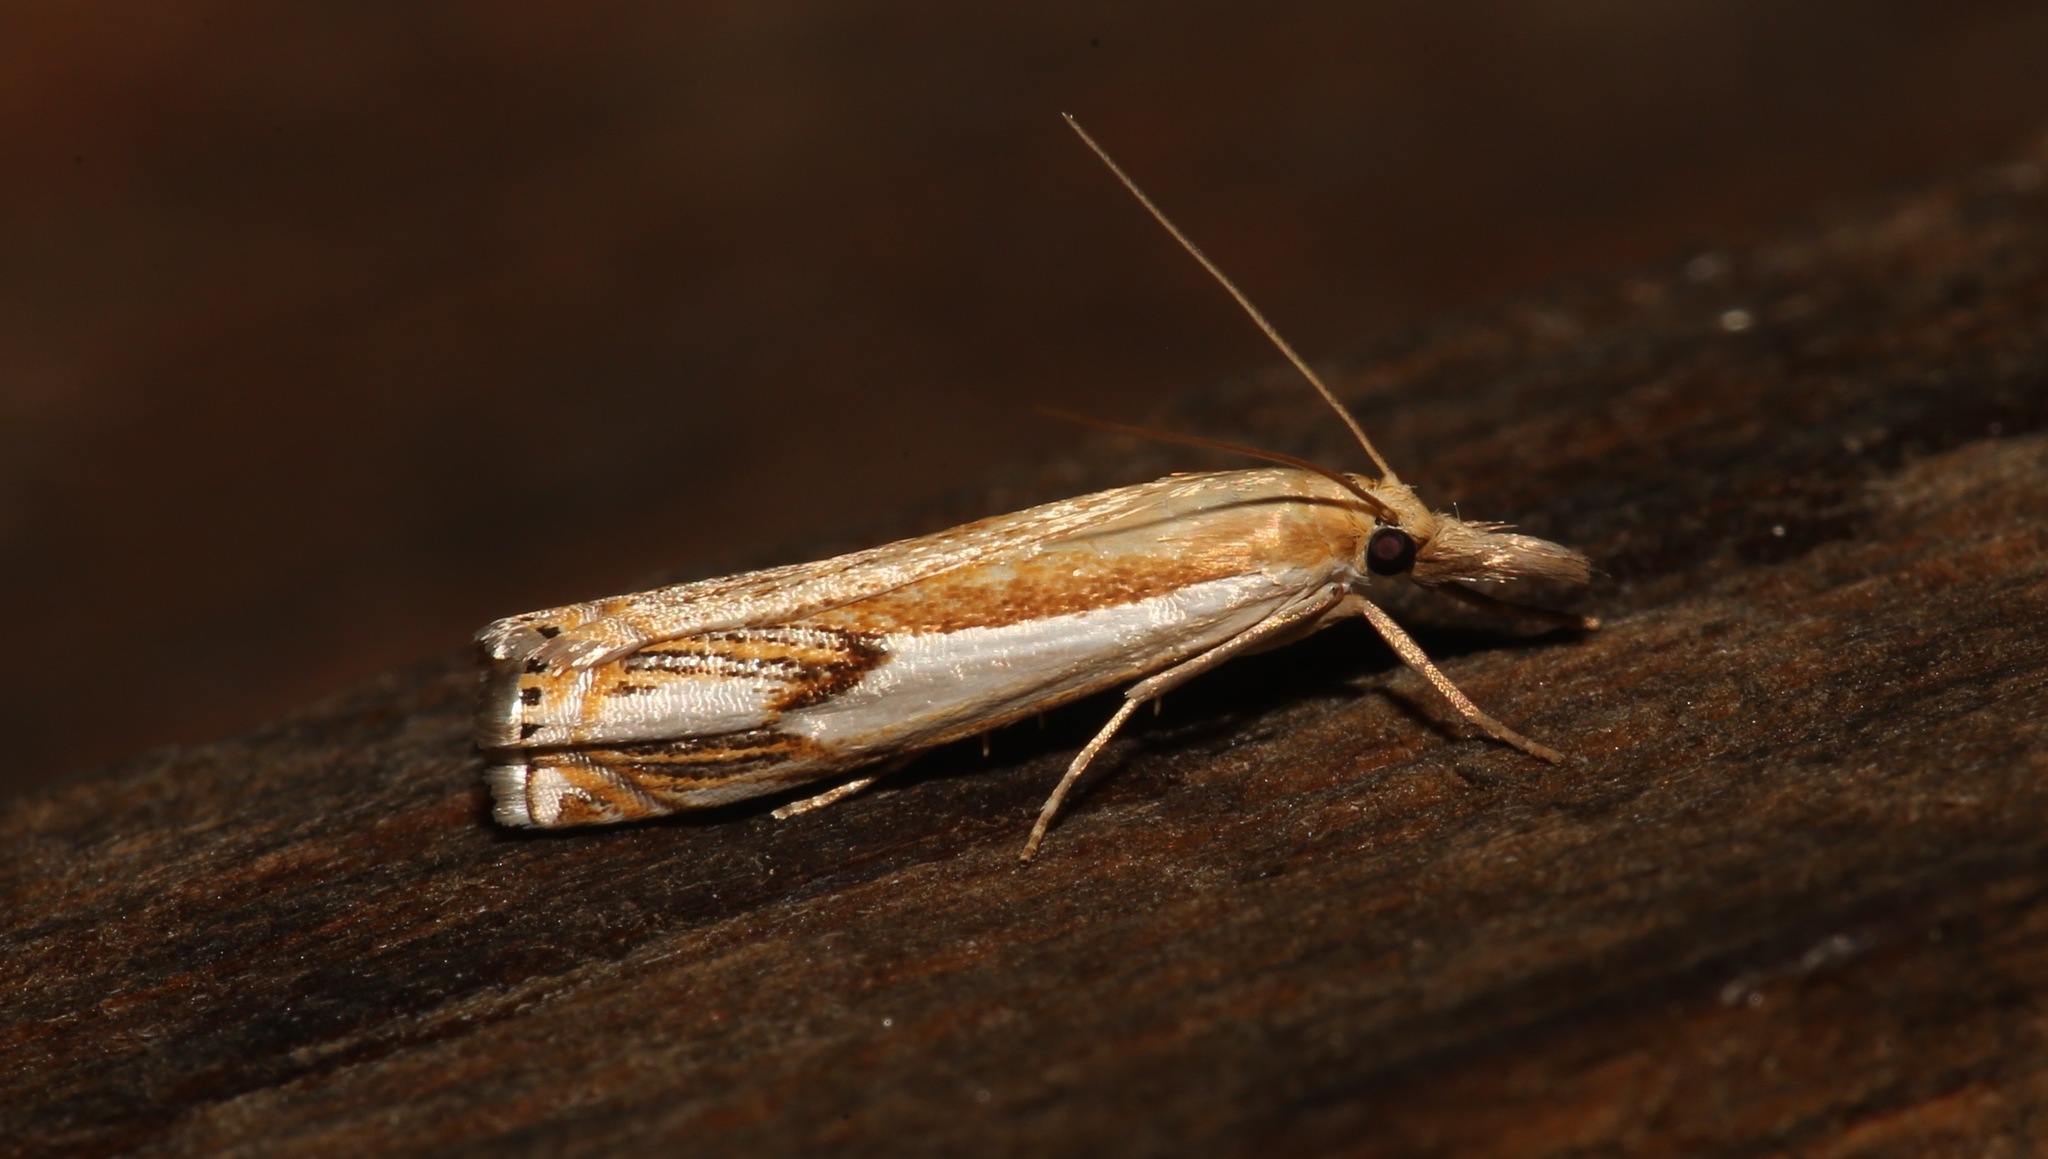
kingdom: Animalia
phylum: Arthropoda
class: Insecta
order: Lepidoptera
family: Crambidae
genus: Crambus
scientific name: Crambus agitatellus
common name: Double-banded grass-veneer
